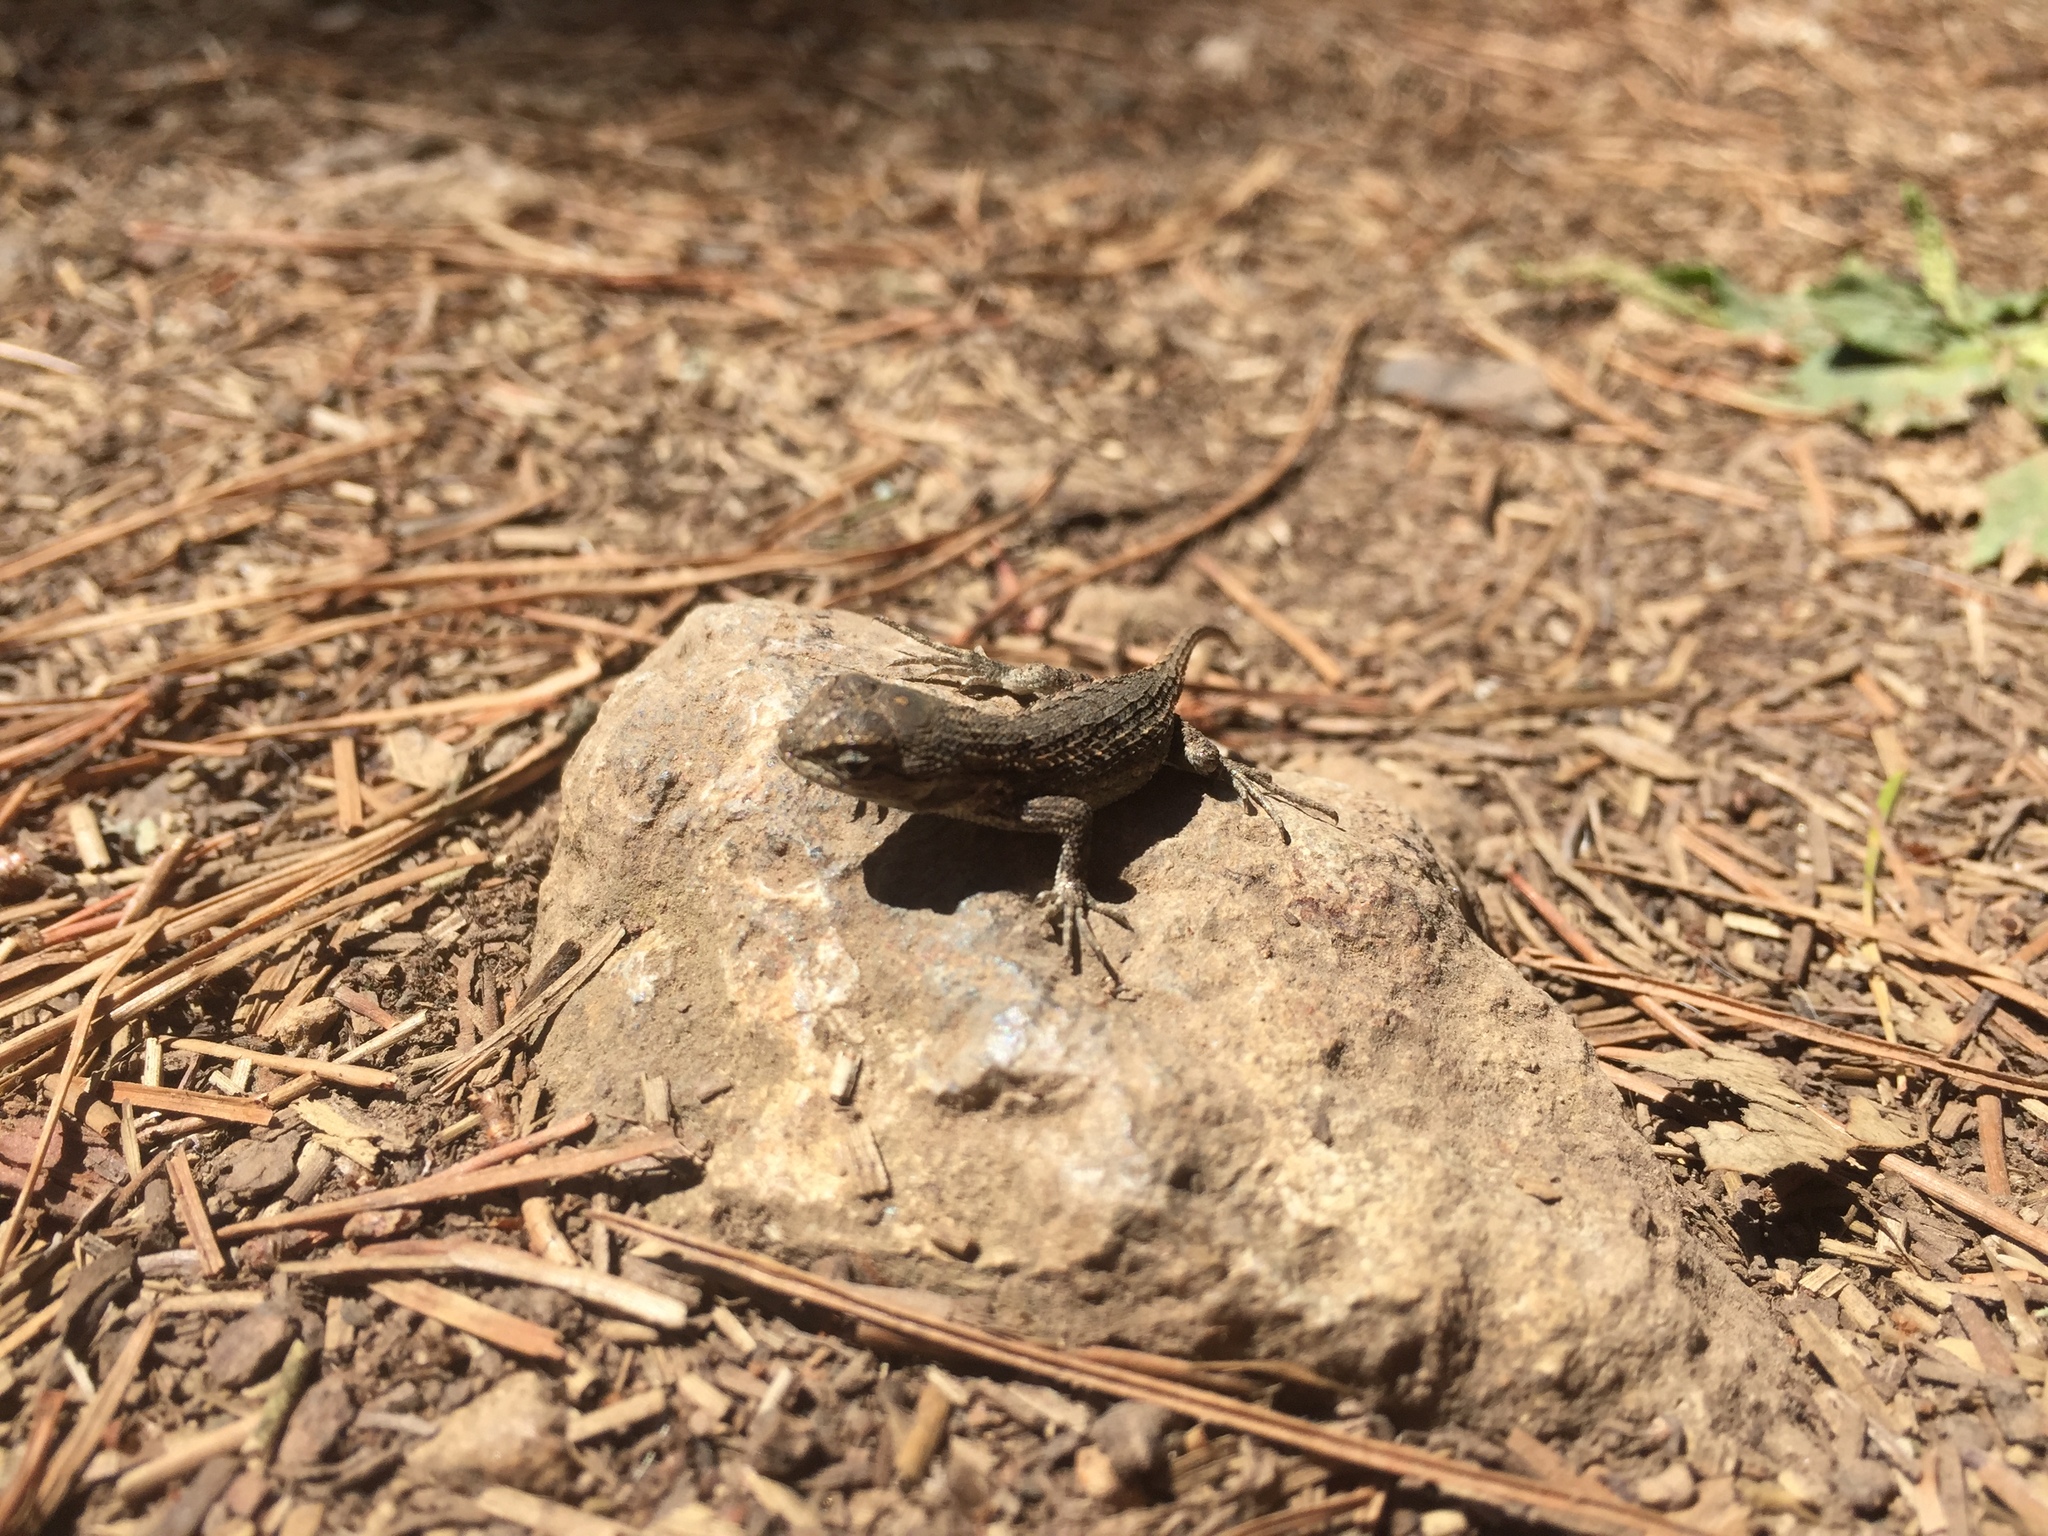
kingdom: Animalia
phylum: Chordata
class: Squamata
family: Phrynosomatidae
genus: Sceloporus
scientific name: Sceloporus occidentalis
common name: Western fence lizard
